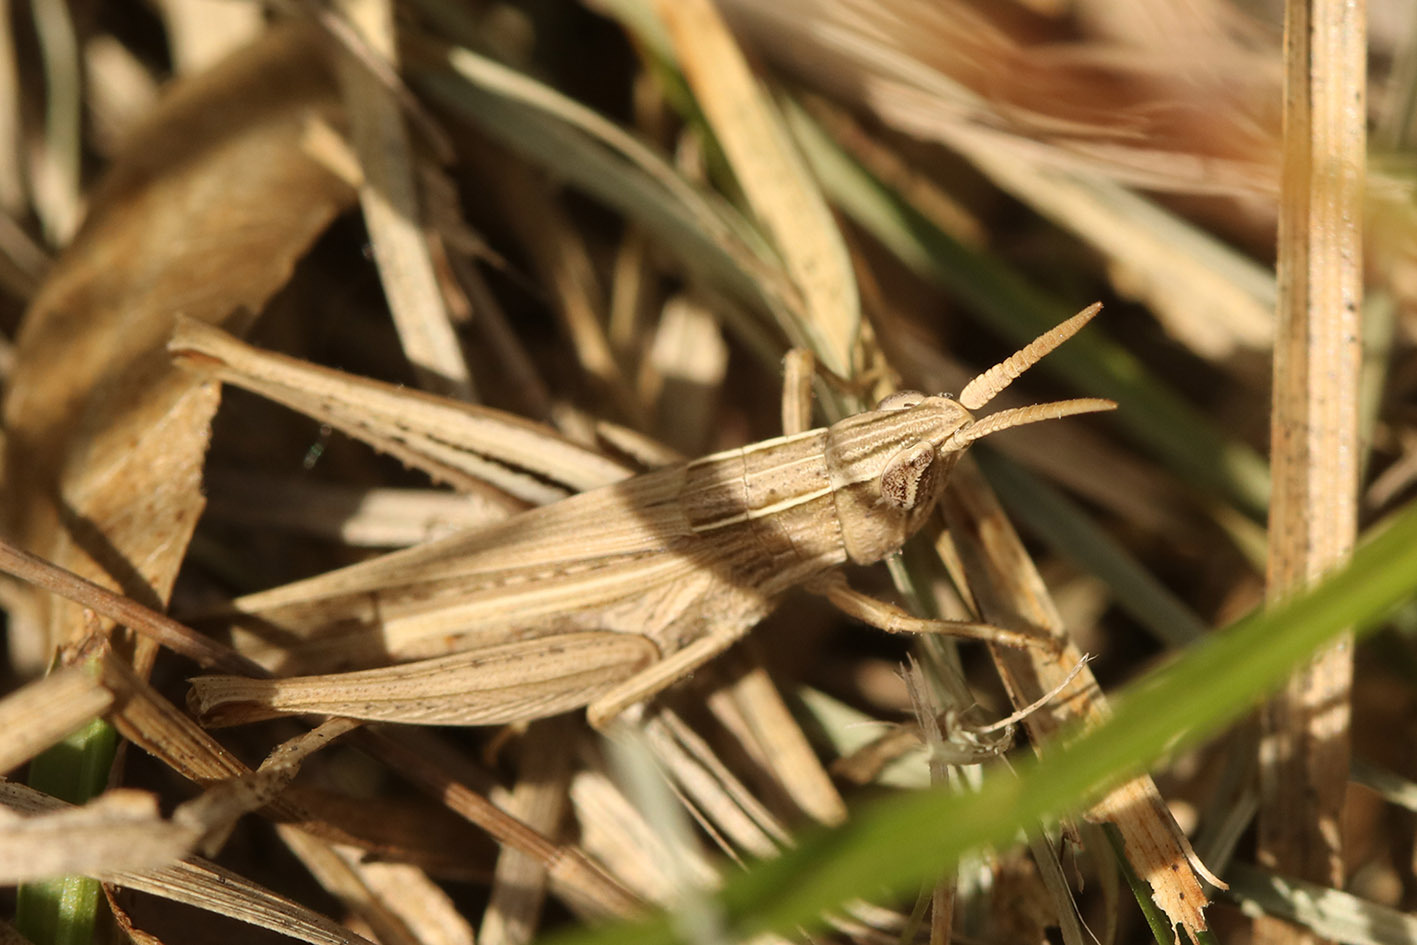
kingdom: Animalia
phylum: Arthropoda
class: Insecta
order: Orthoptera
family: Acrididae
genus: Laplatacris
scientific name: Laplatacris dispar
